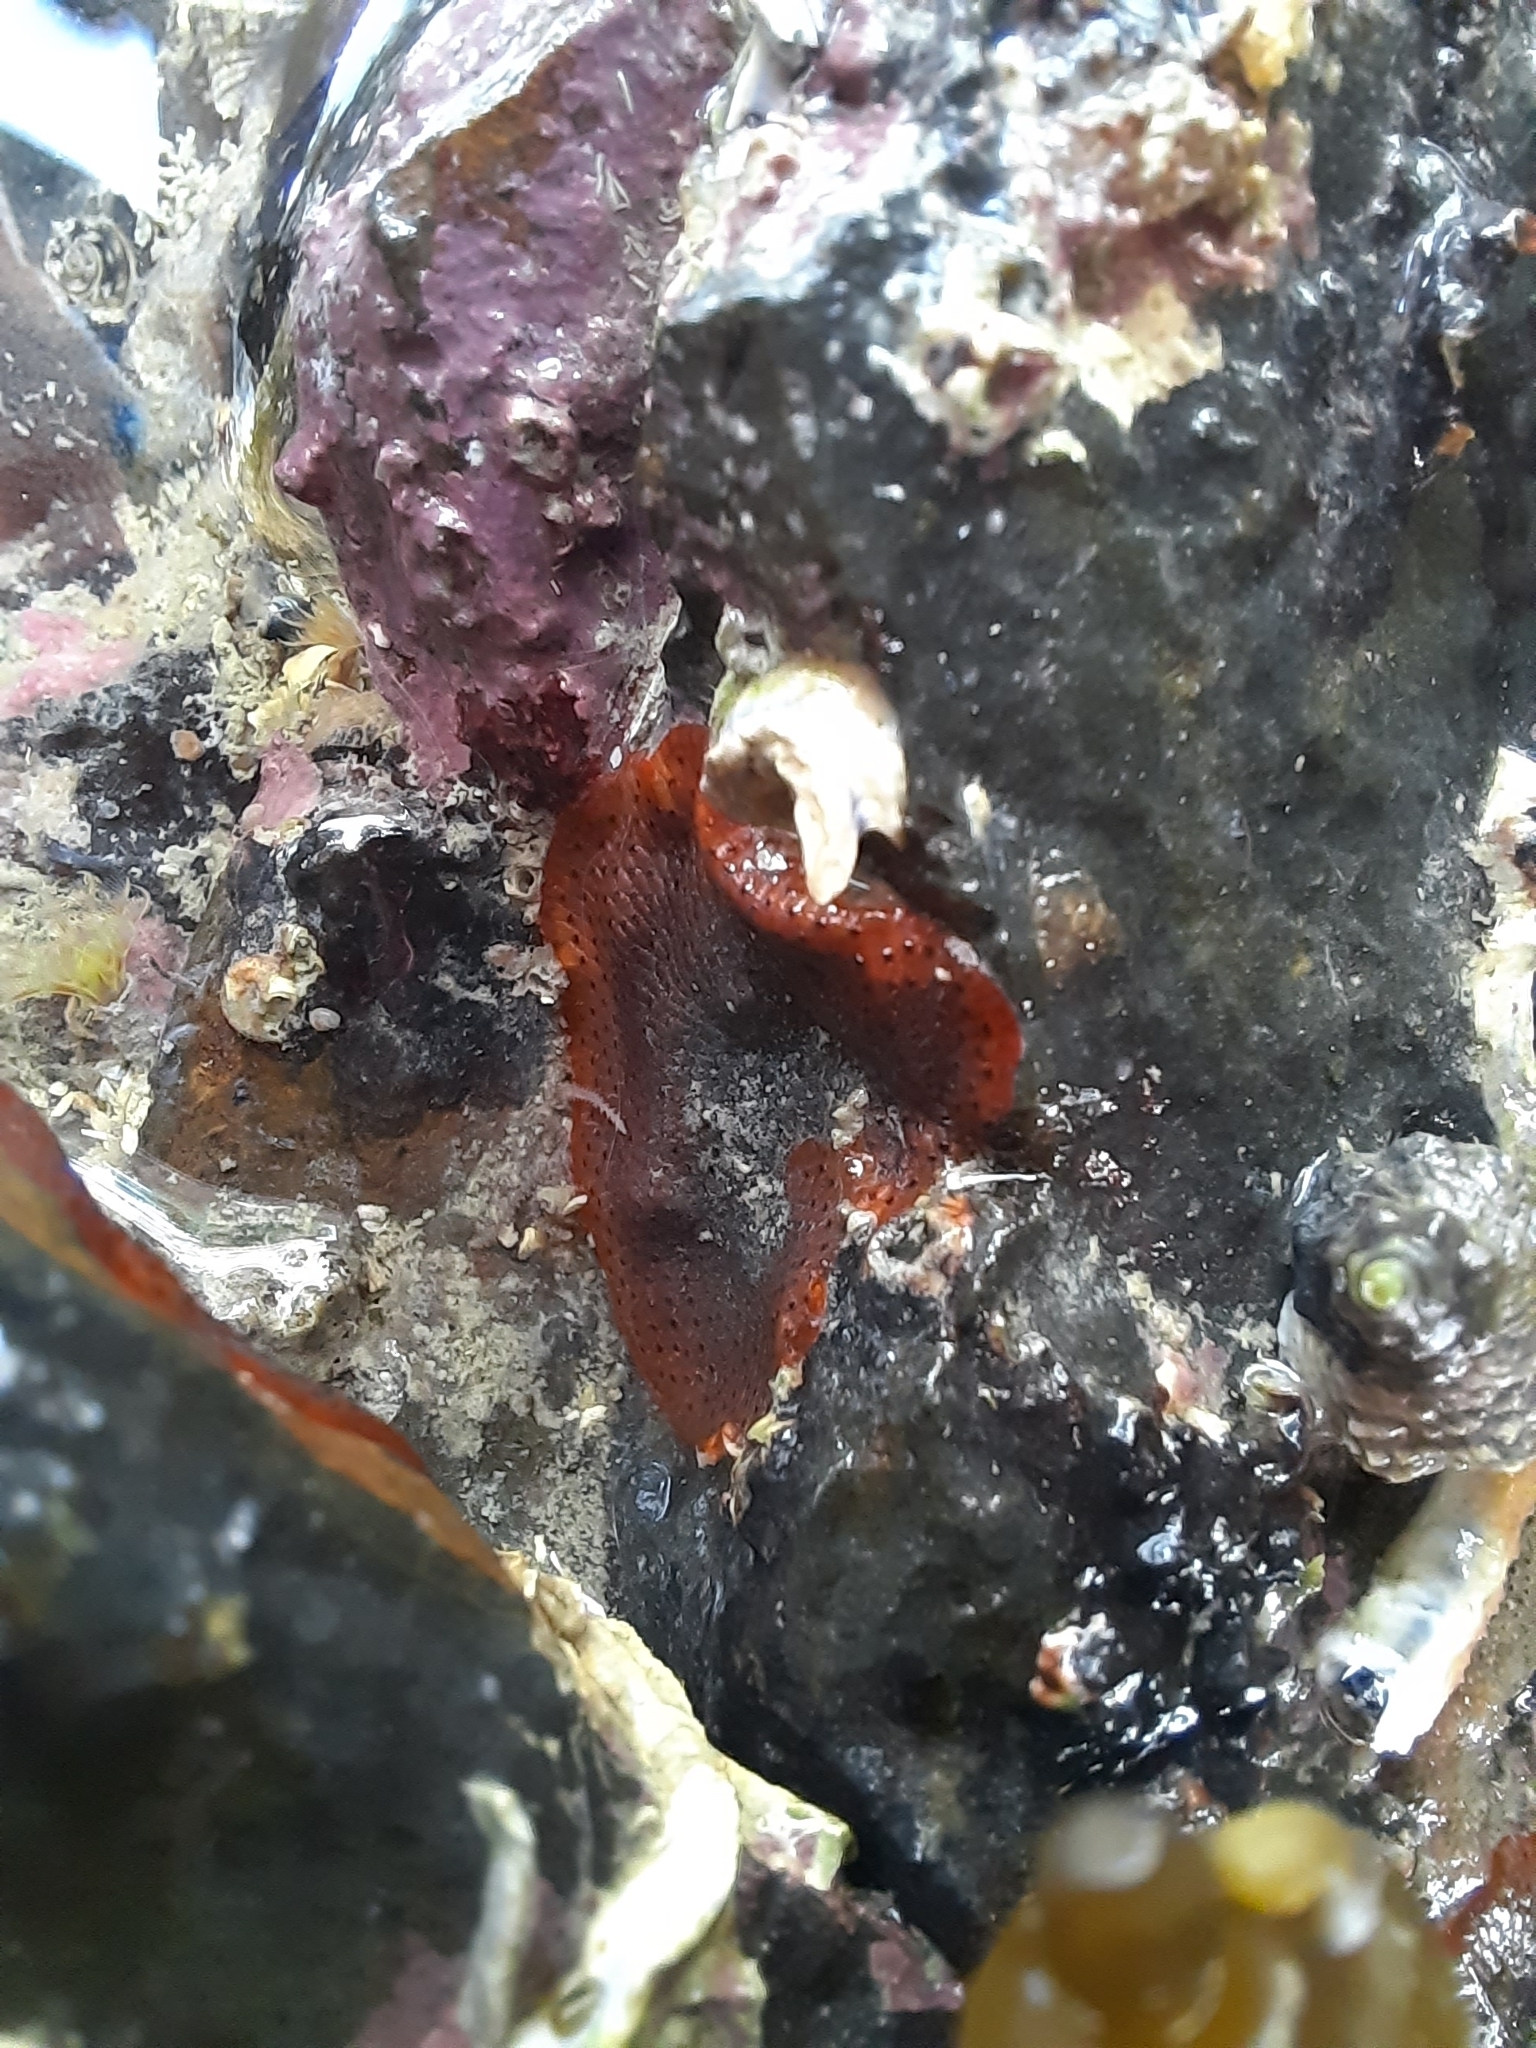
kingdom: Animalia
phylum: Bryozoa
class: Gymnolaemata
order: Cheilostomatida
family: Watersiporidae
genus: Watersipora
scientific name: Watersipora subatra
